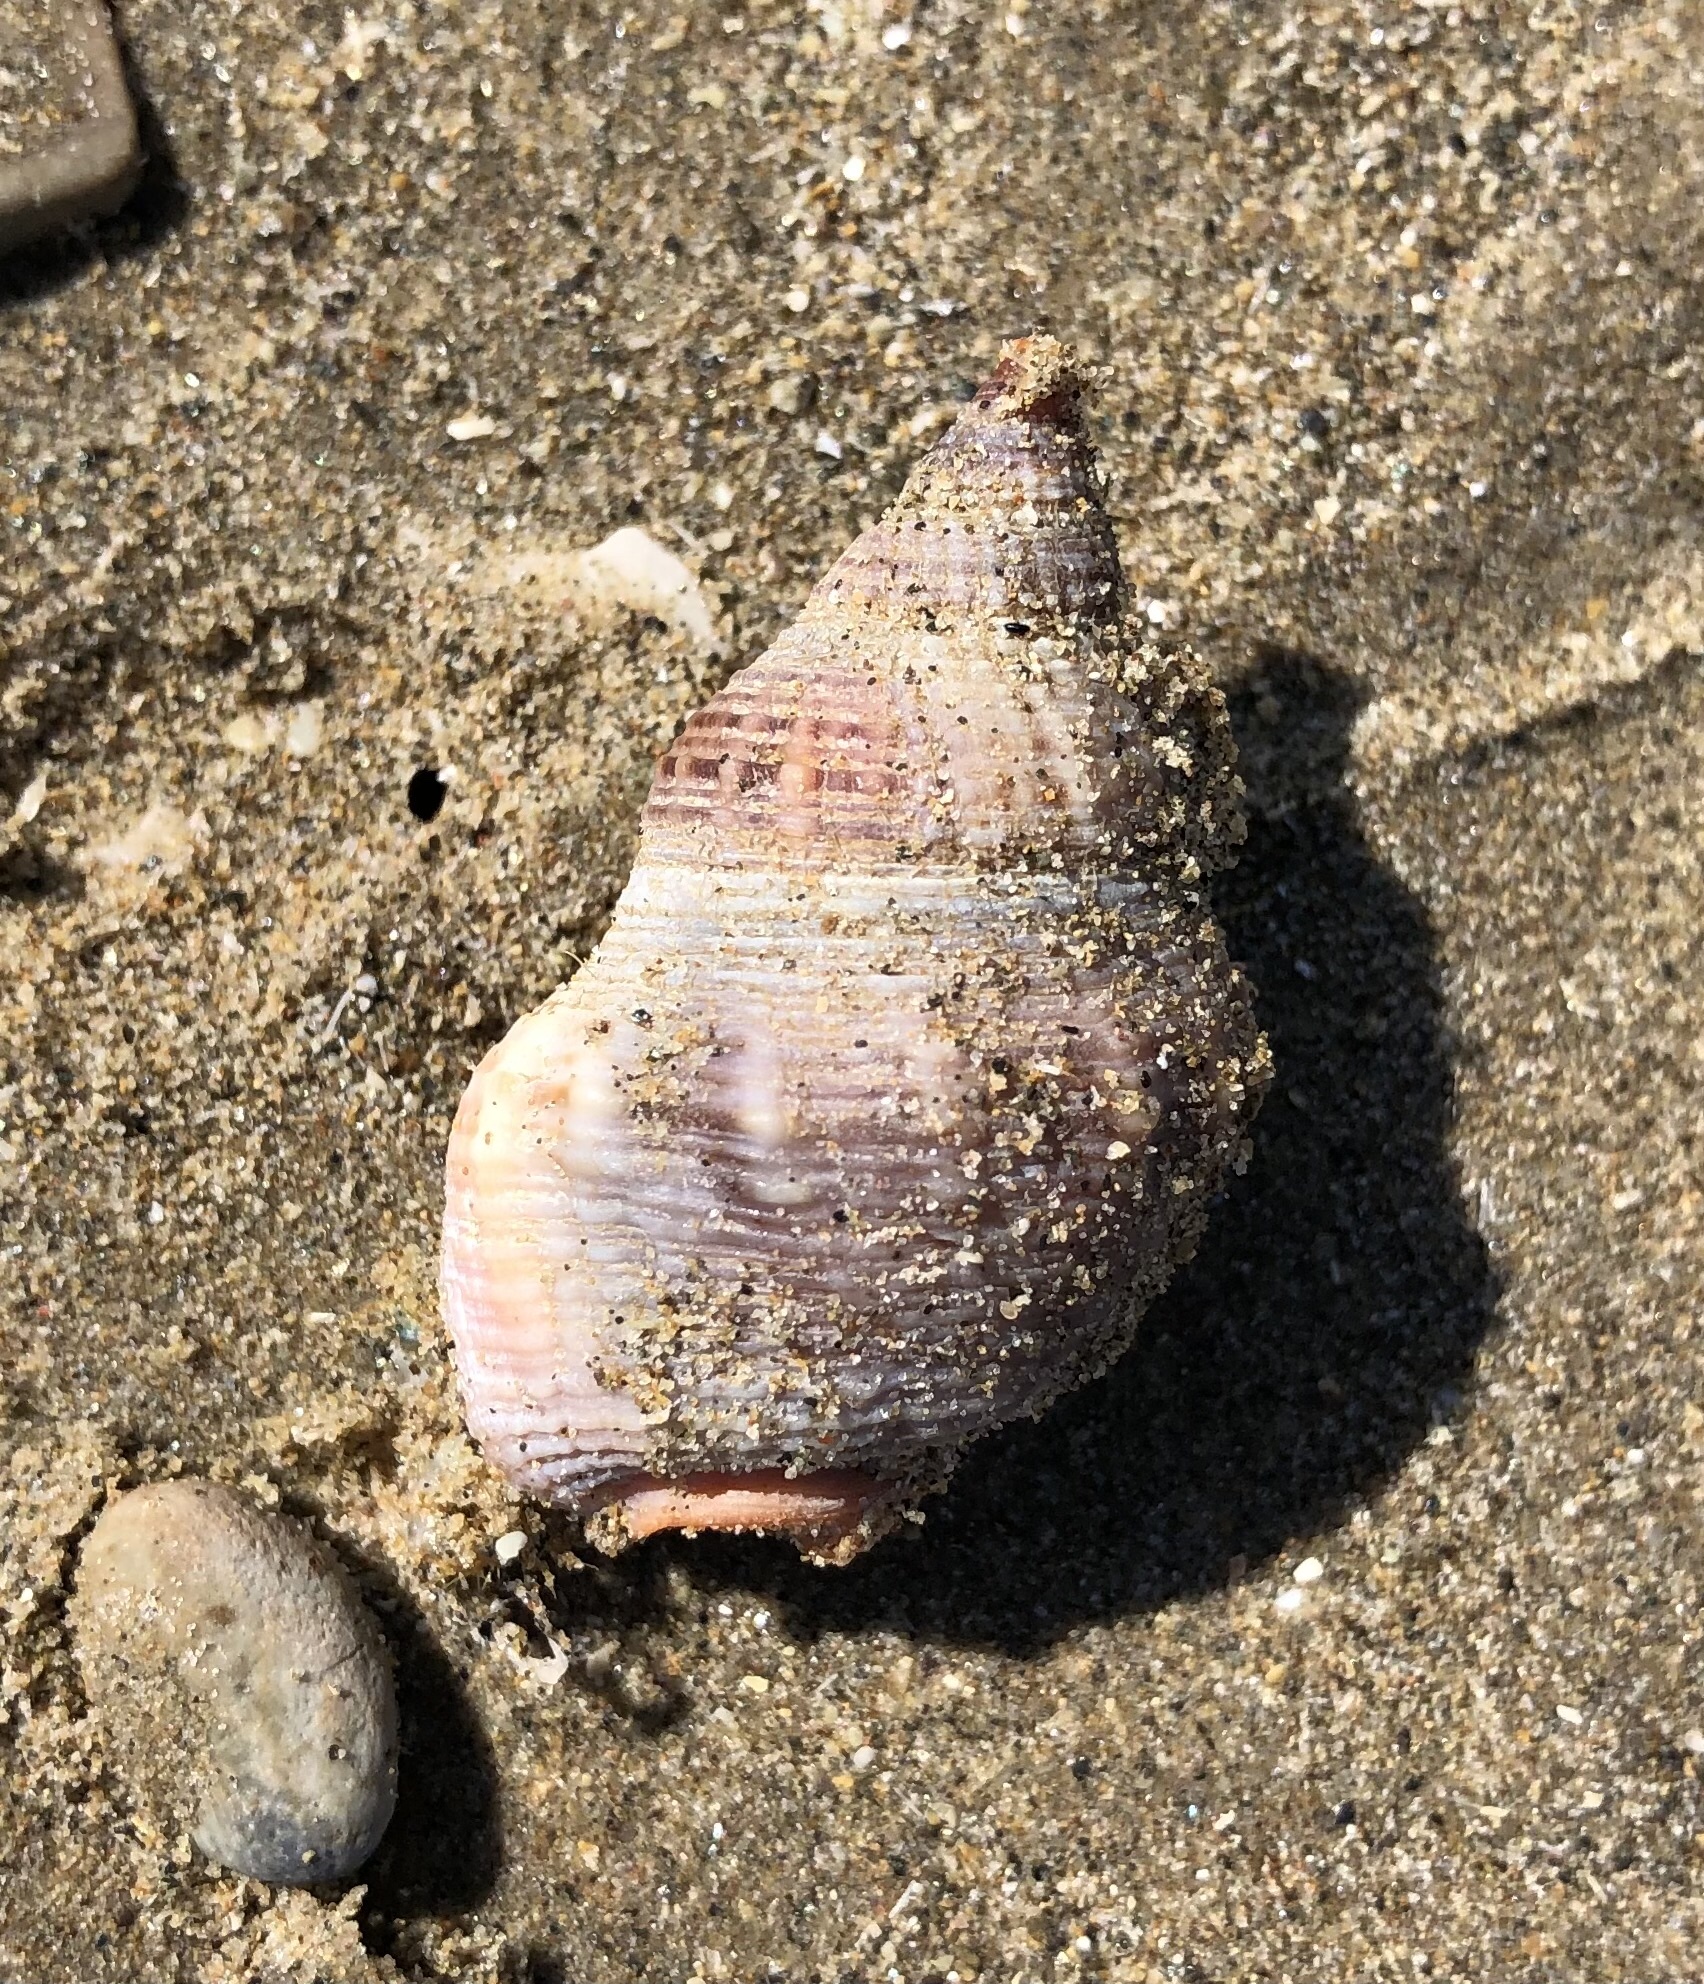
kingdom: Animalia
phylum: Mollusca
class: Gastropoda
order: Neogastropoda
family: Nassariidae
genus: Caesia
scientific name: Caesia fossata
